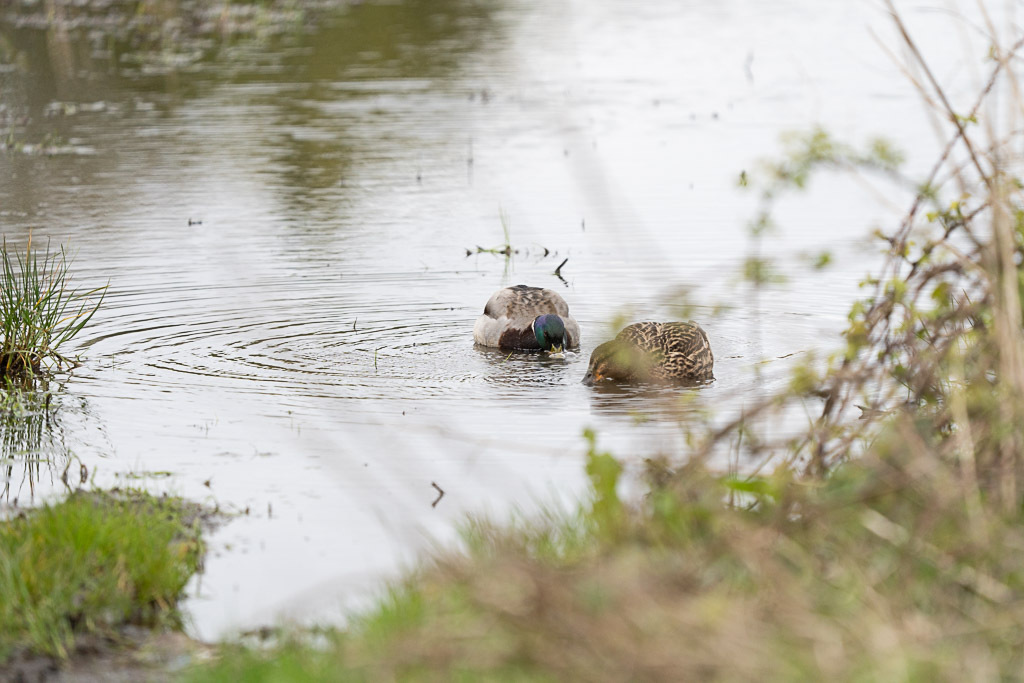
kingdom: Animalia
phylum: Chordata
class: Aves
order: Anseriformes
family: Anatidae
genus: Anas
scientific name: Anas platyrhynchos
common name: Mallard
